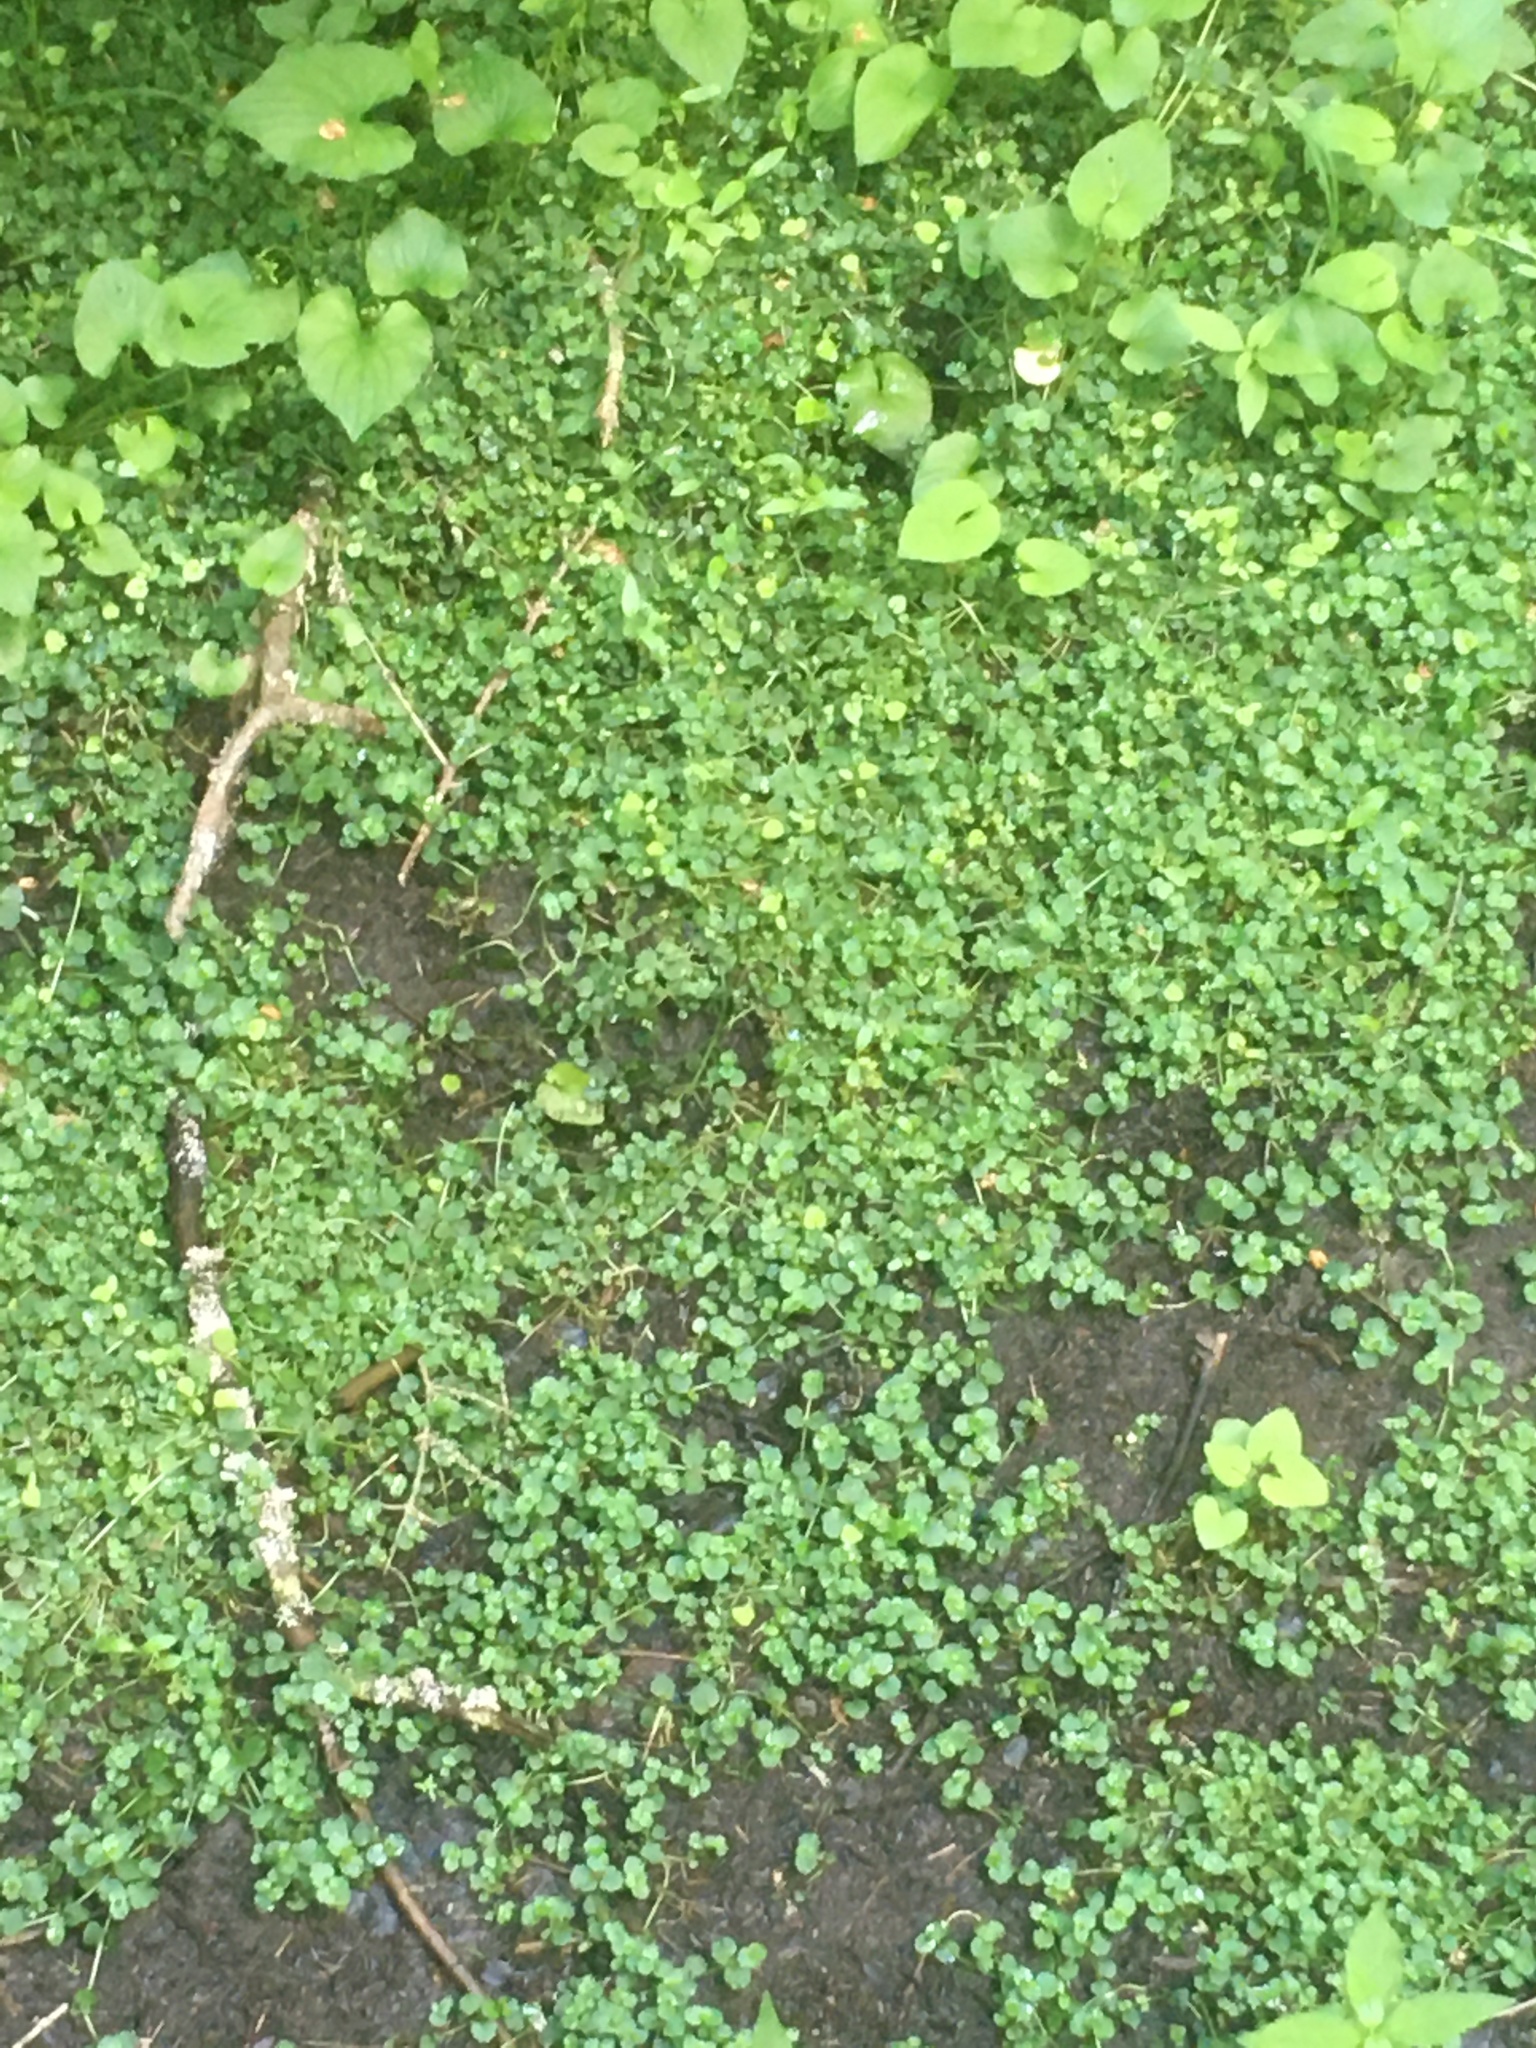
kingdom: Plantae
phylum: Tracheophyta
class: Magnoliopsida
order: Saxifragales
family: Saxifragaceae
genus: Chrysosplenium
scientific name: Chrysosplenium americanum
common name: American golden-saxifrage
